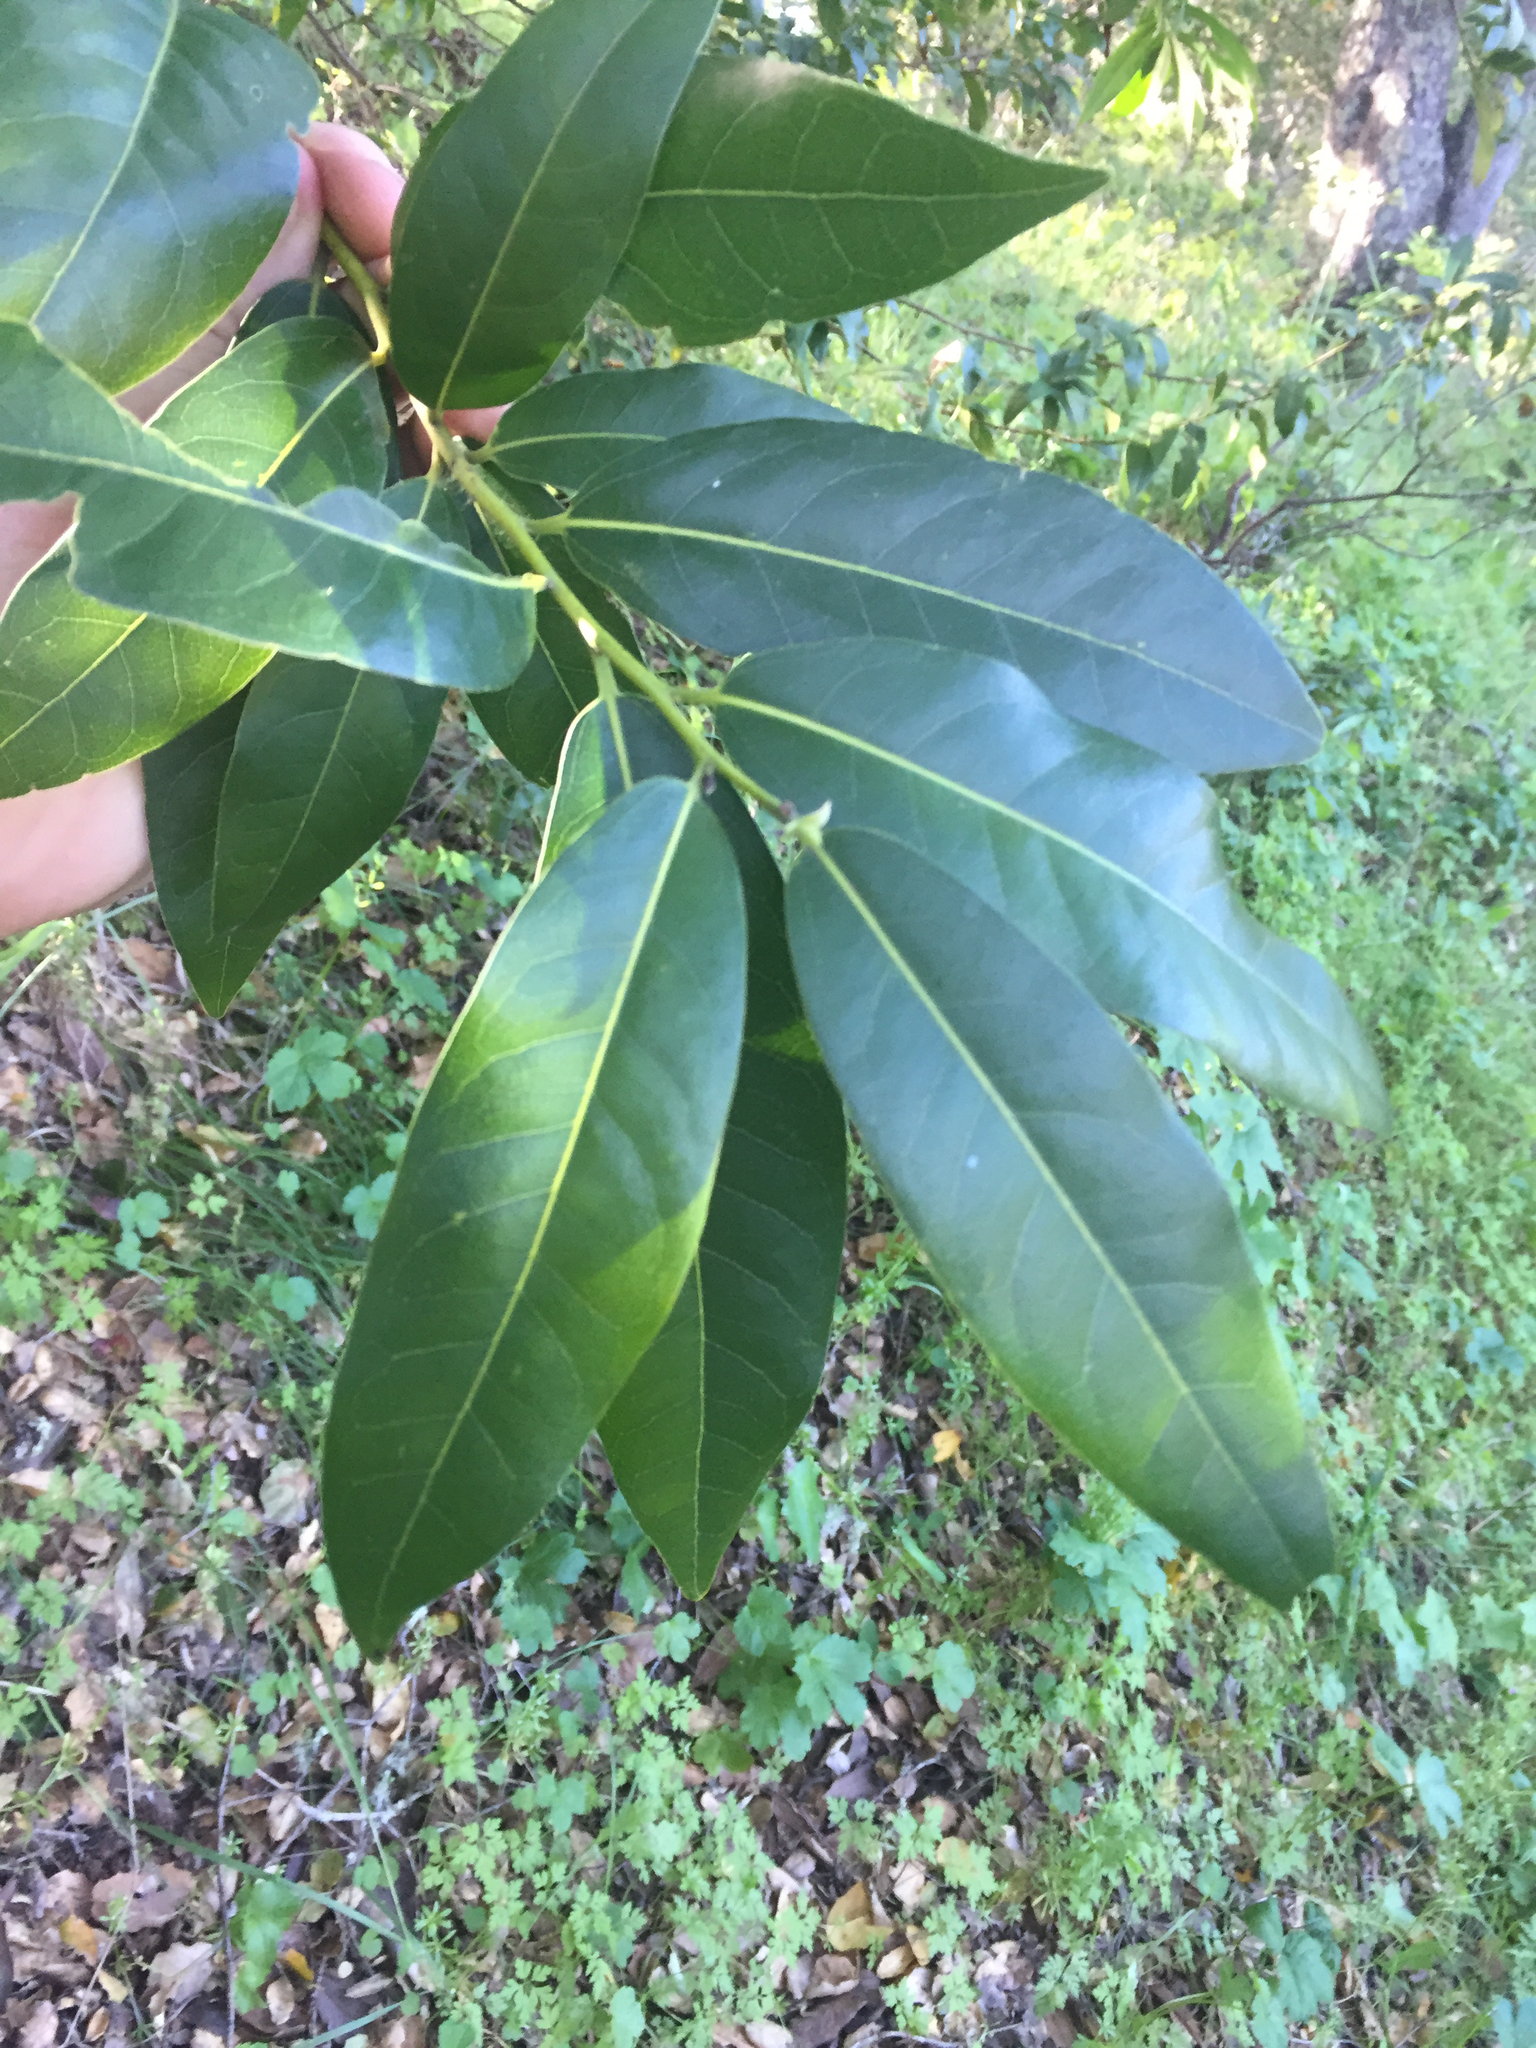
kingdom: Plantae
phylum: Tracheophyta
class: Magnoliopsida
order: Laurales
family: Lauraceae
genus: Umbellularia
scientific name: Umbellularia californica
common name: California bay
